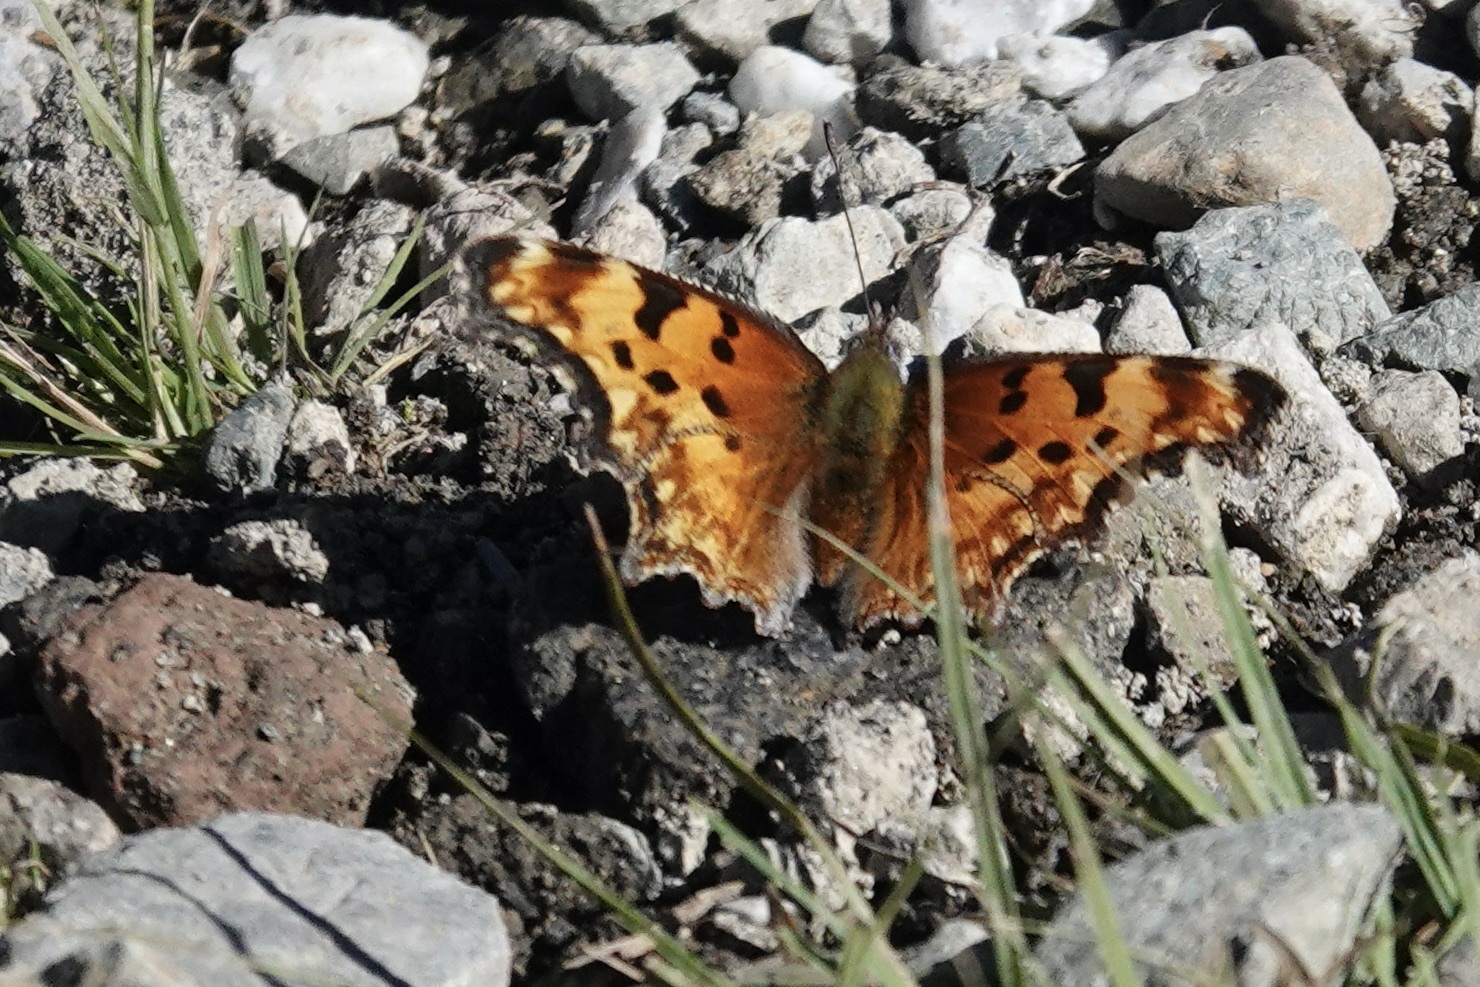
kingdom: Animalia
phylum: Arthropoda
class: Insecta
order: Lepidoptera
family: Nymphalidae
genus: Polygonia
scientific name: Polygonia gracilis
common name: Hoary comma
